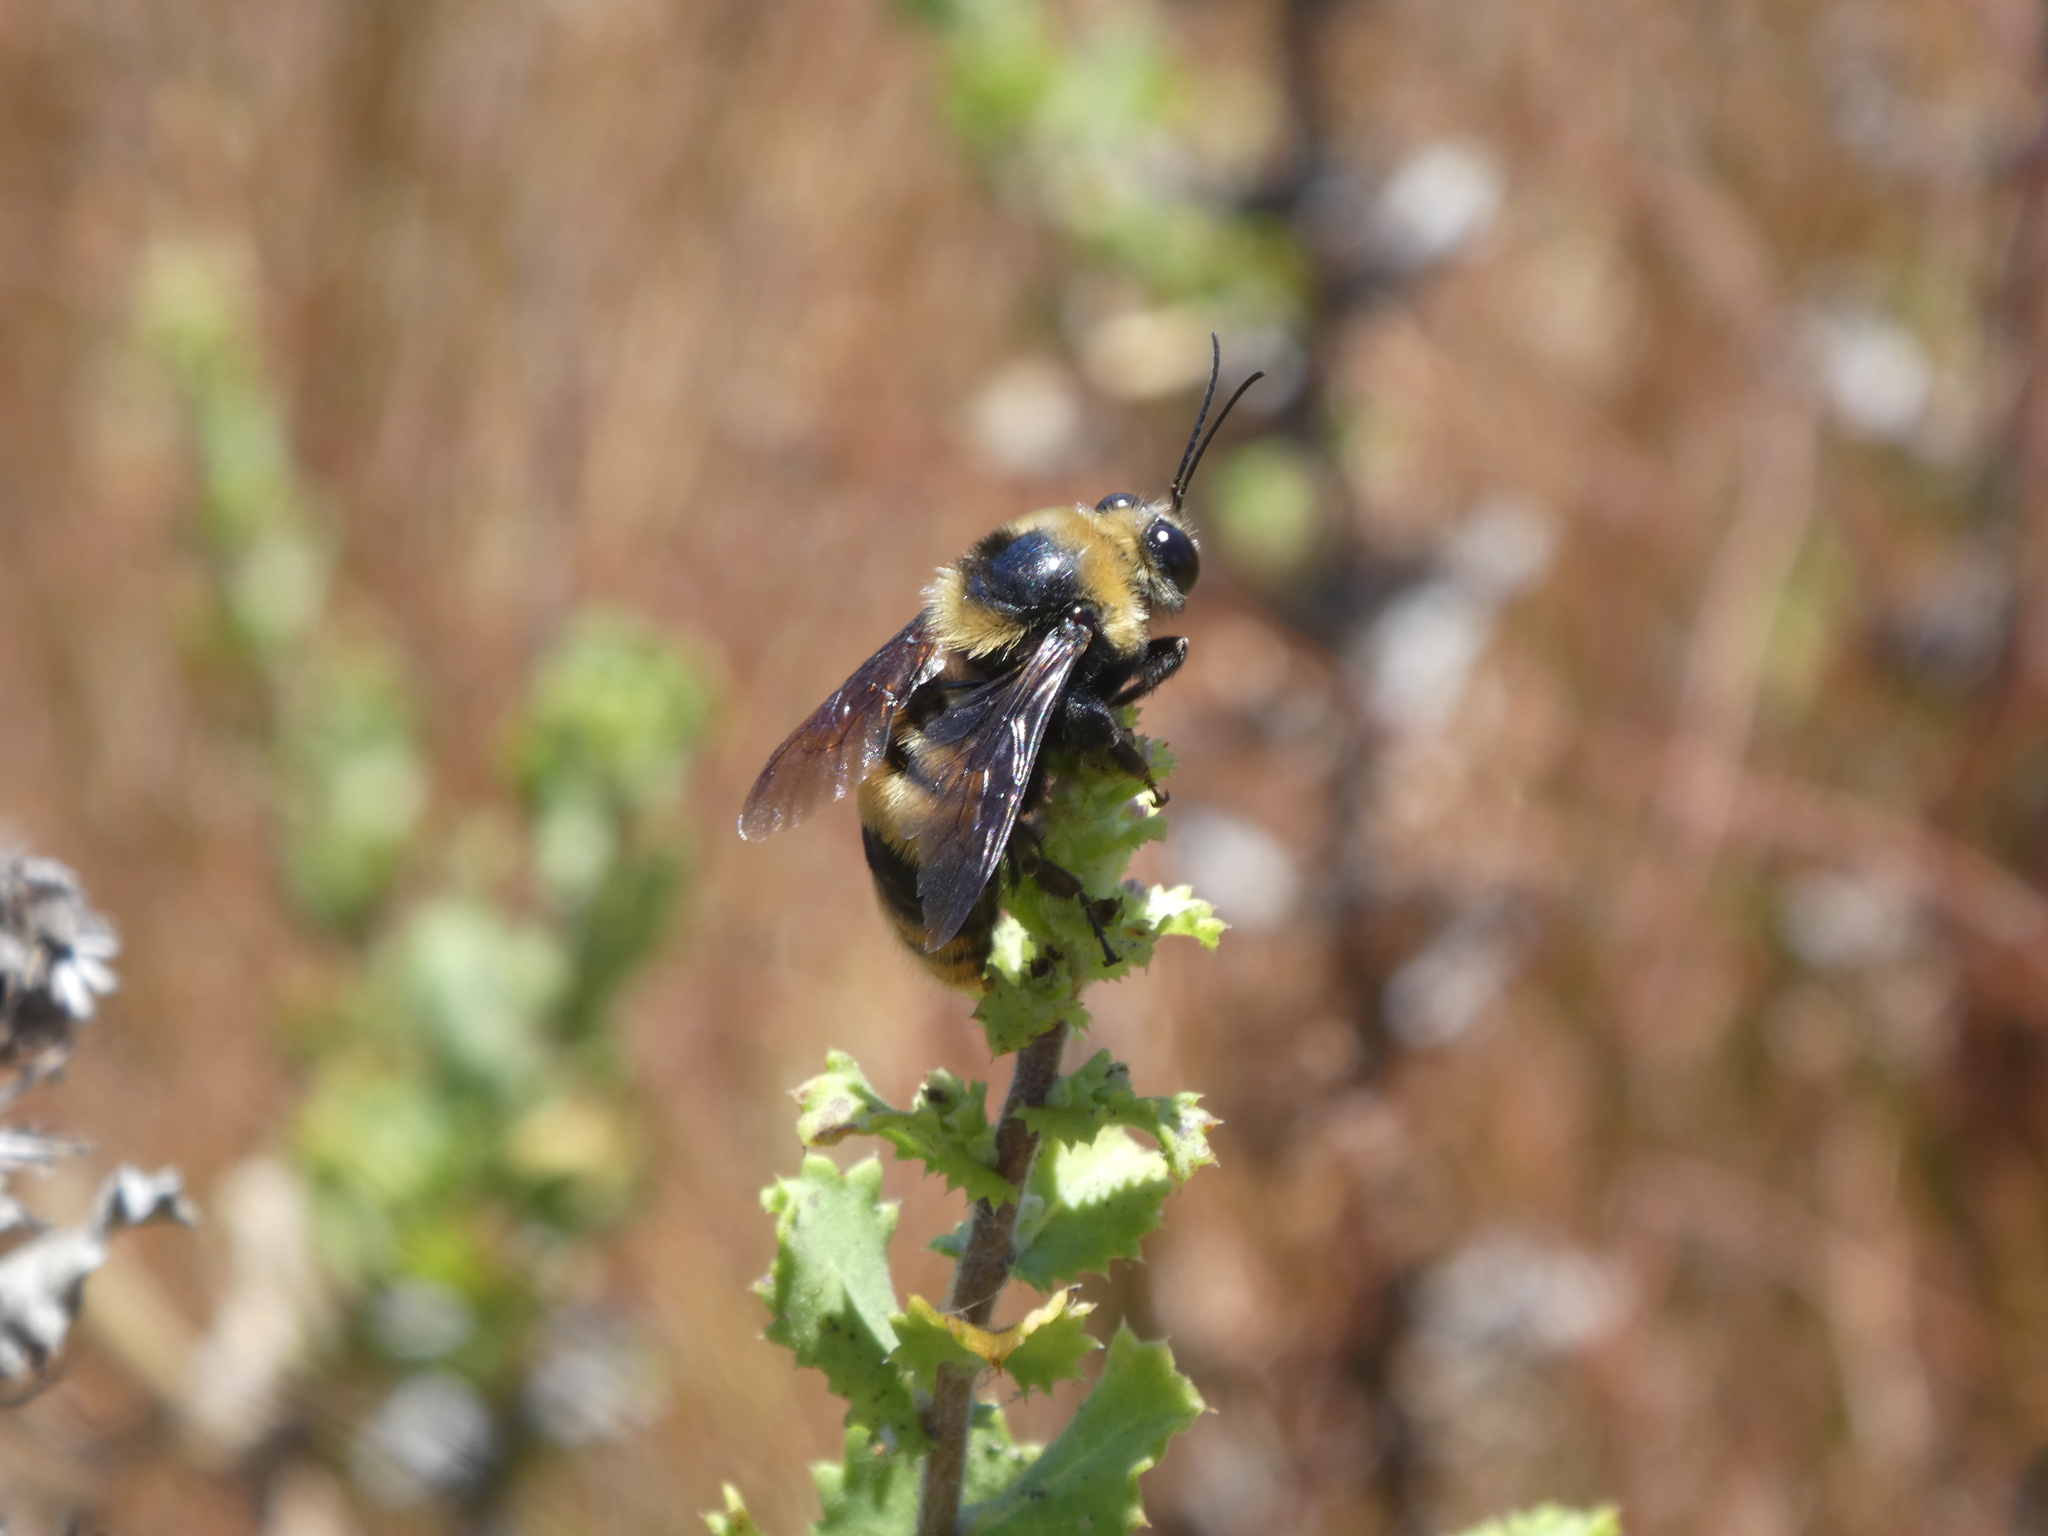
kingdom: Animalia
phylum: Arthropoda
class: Insecta
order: Hymenoptera
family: Apidae
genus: Bombus
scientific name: Bombus crotchii
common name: Crotch bumble bee
